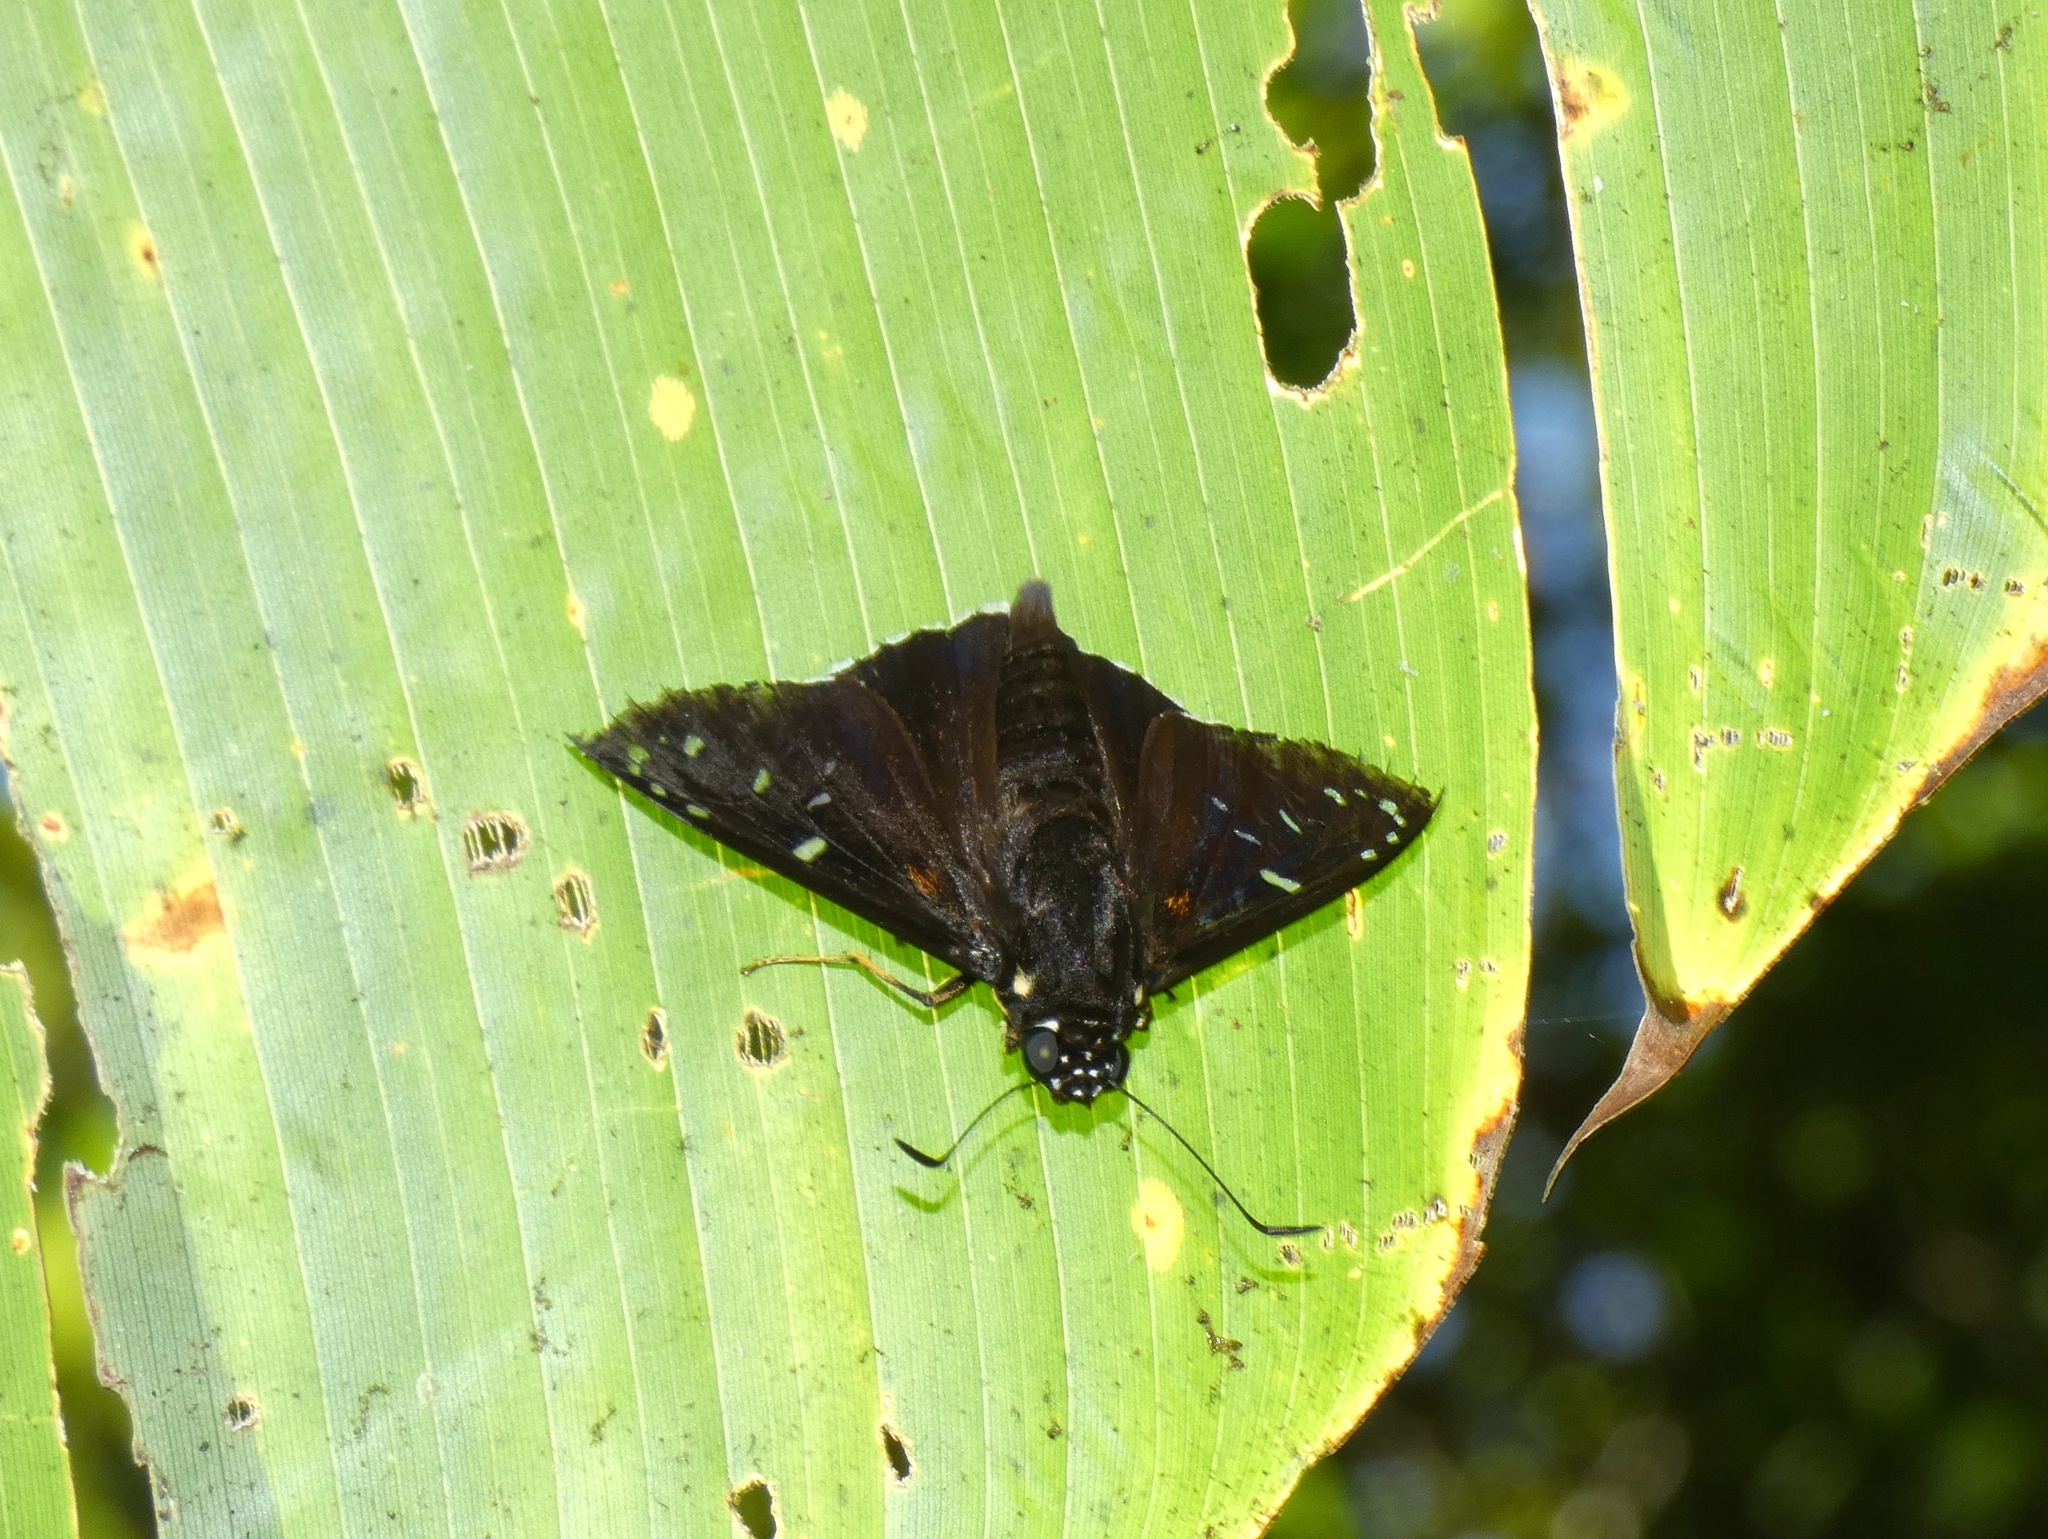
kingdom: Animalia
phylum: Arthropoda
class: Insecta
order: Lepidoptera
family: Hesperiidae
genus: Pyrrhopyge
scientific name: Pyrrhopyge
